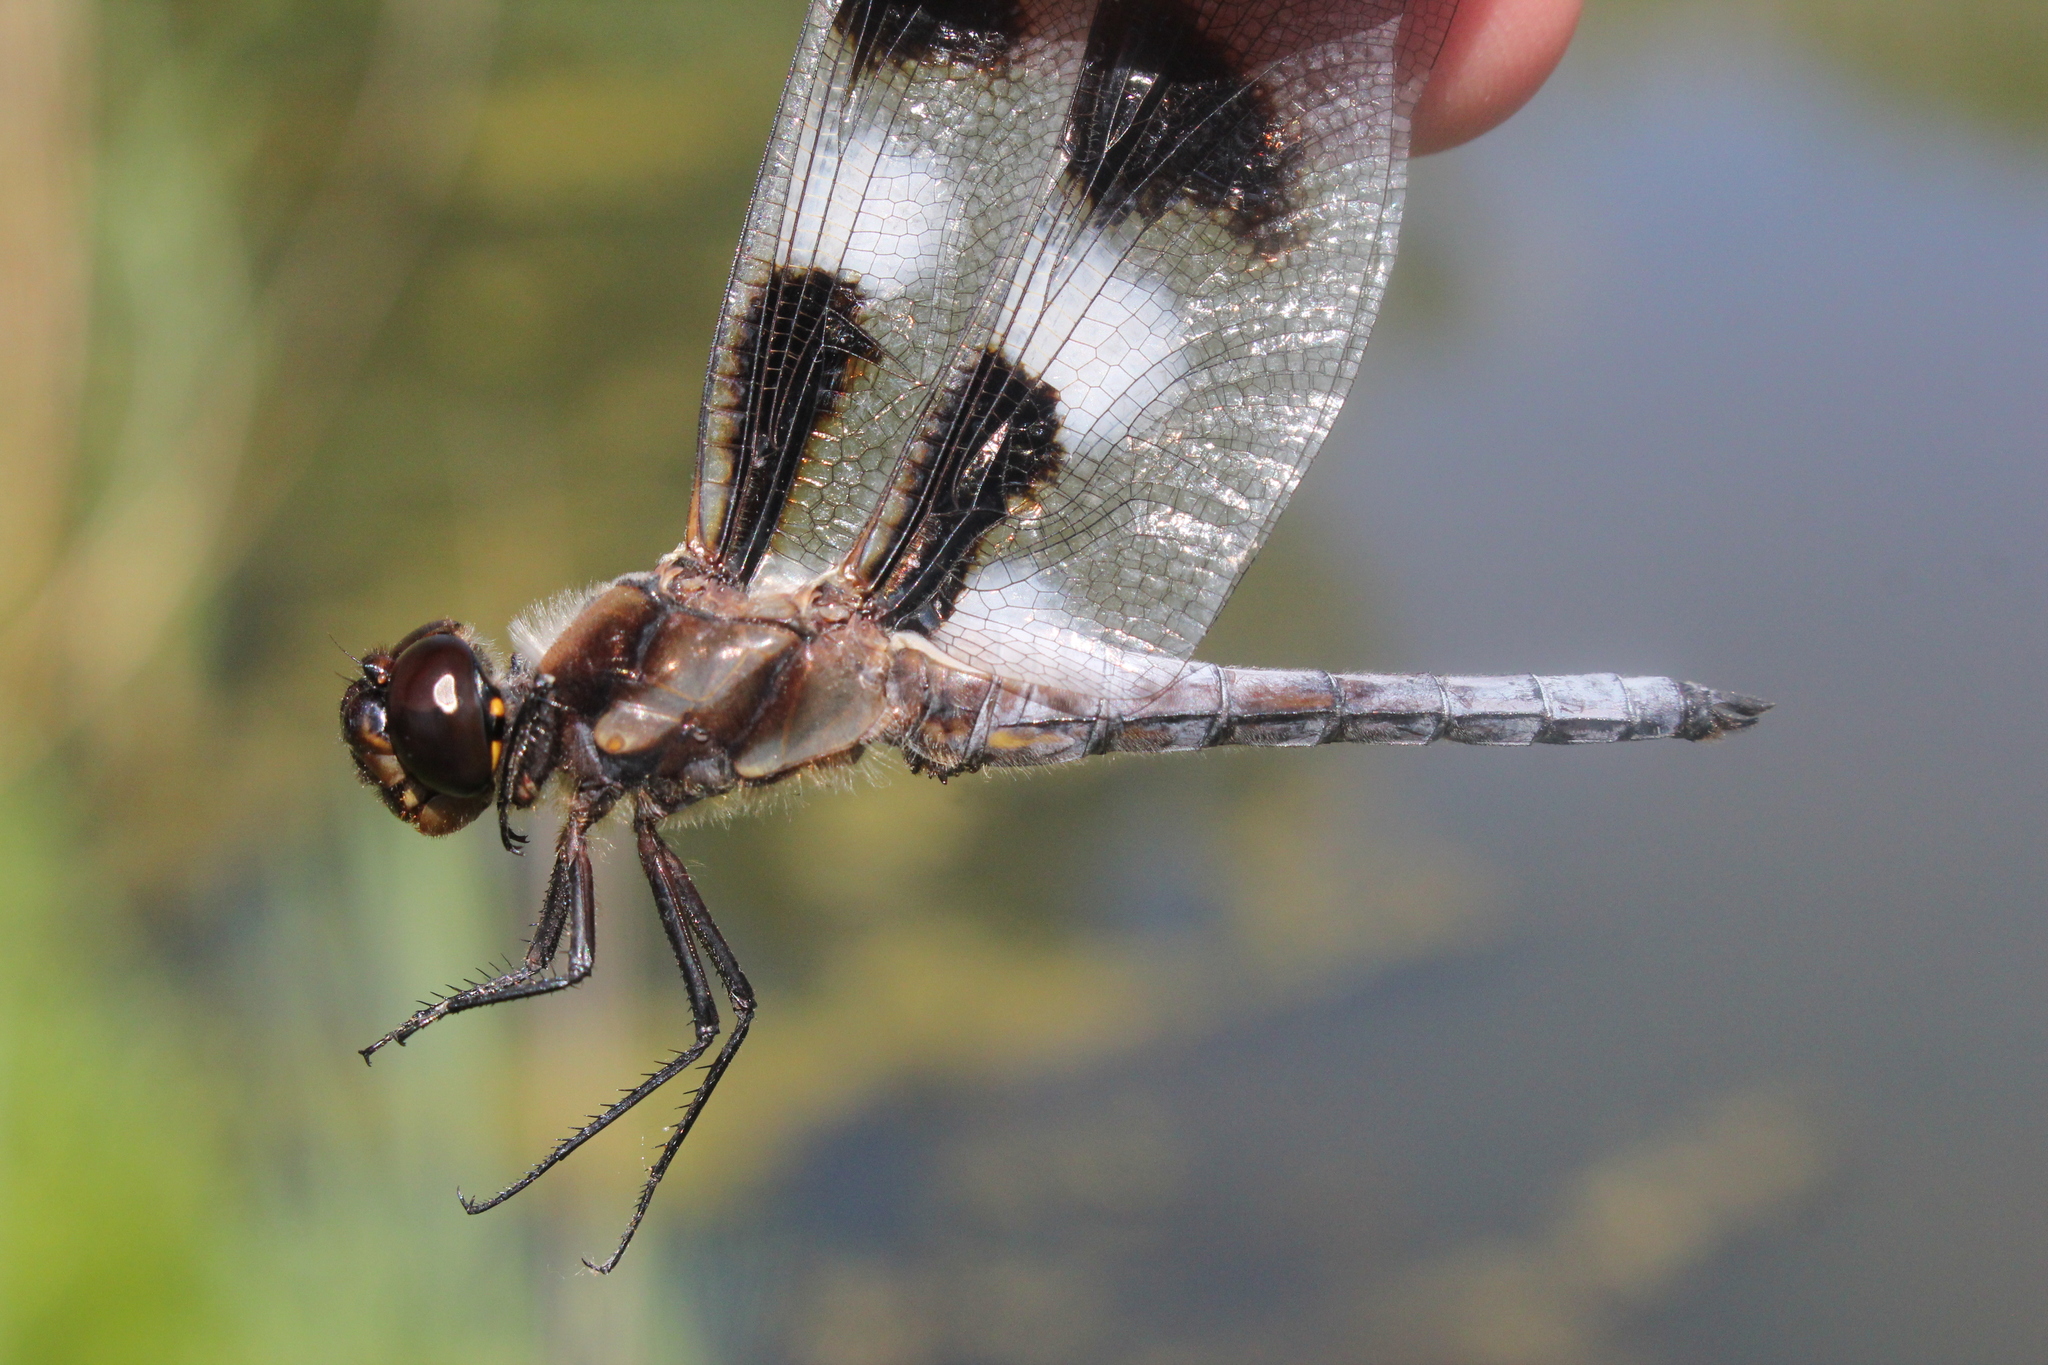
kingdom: Animalia
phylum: Arthropoda
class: Insecta
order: Odonata
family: Libellulidae
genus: Libellula
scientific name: Libellula pulchella
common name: Twelve-spotted skimmer
